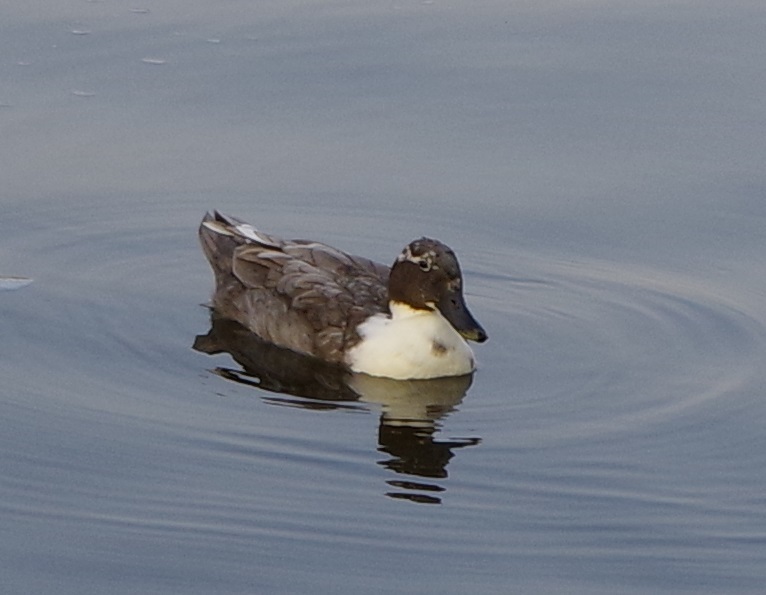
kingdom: Animalia
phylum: Chordata
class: Aves
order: Anseriformes
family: Anatidae
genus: Anas
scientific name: Anas platyrhynchos
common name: Mallard
